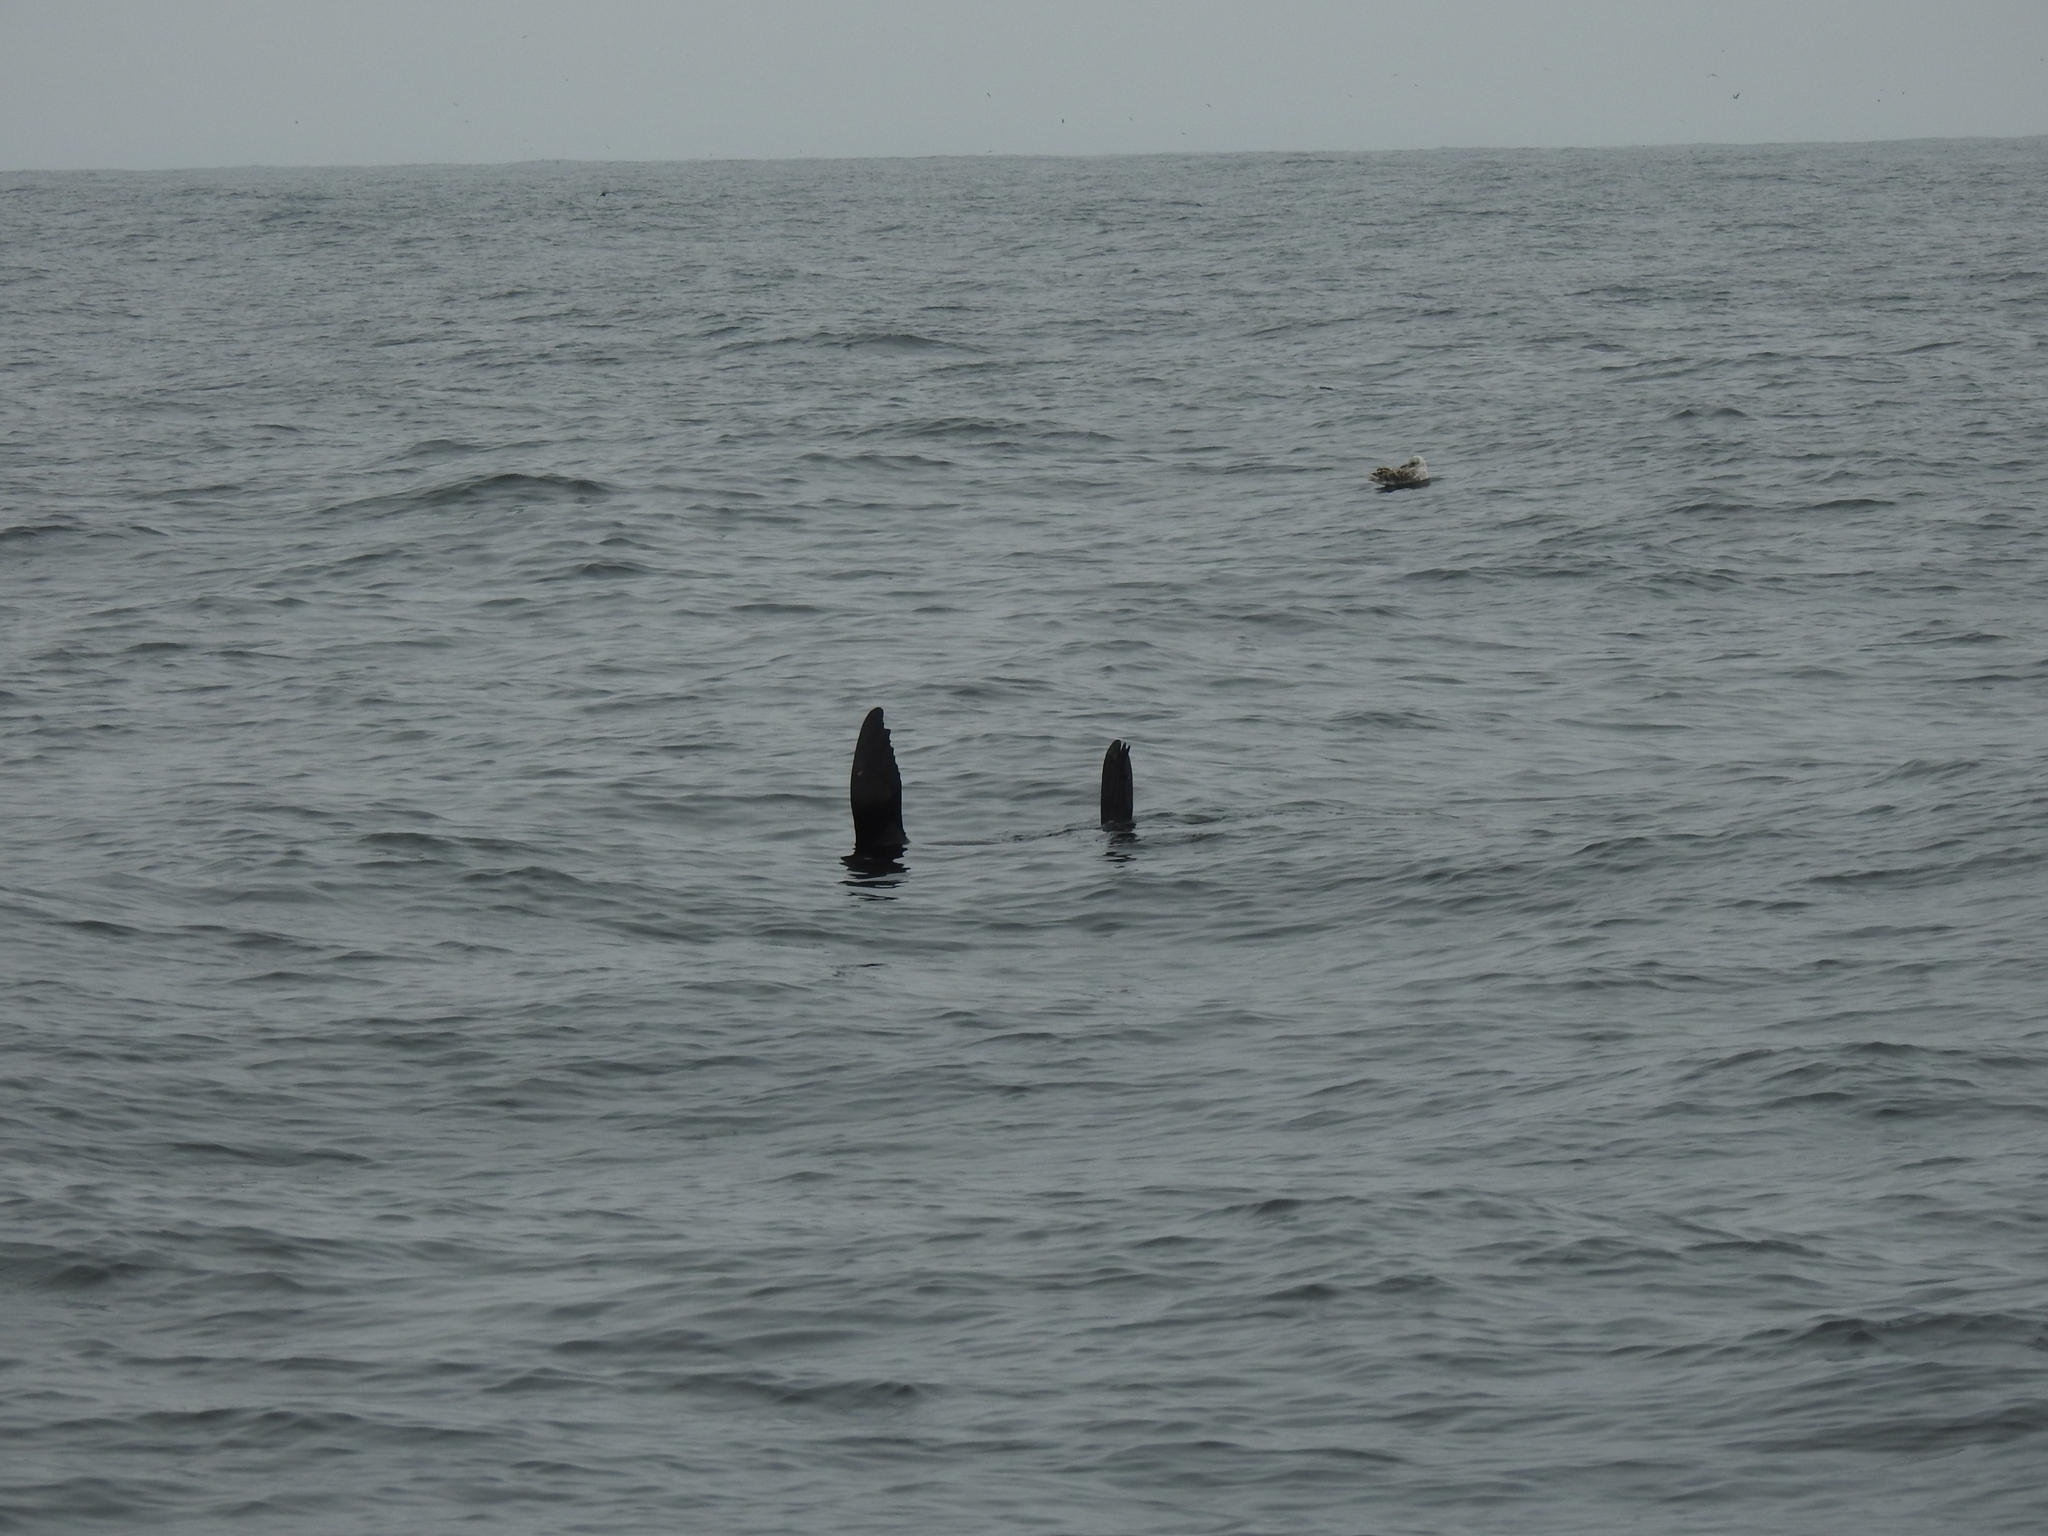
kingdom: Animalia
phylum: Chordata
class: Mammalia
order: Carnivora
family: Otariidae
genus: Zalophus
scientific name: Zalophus californianus
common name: California sea lion
